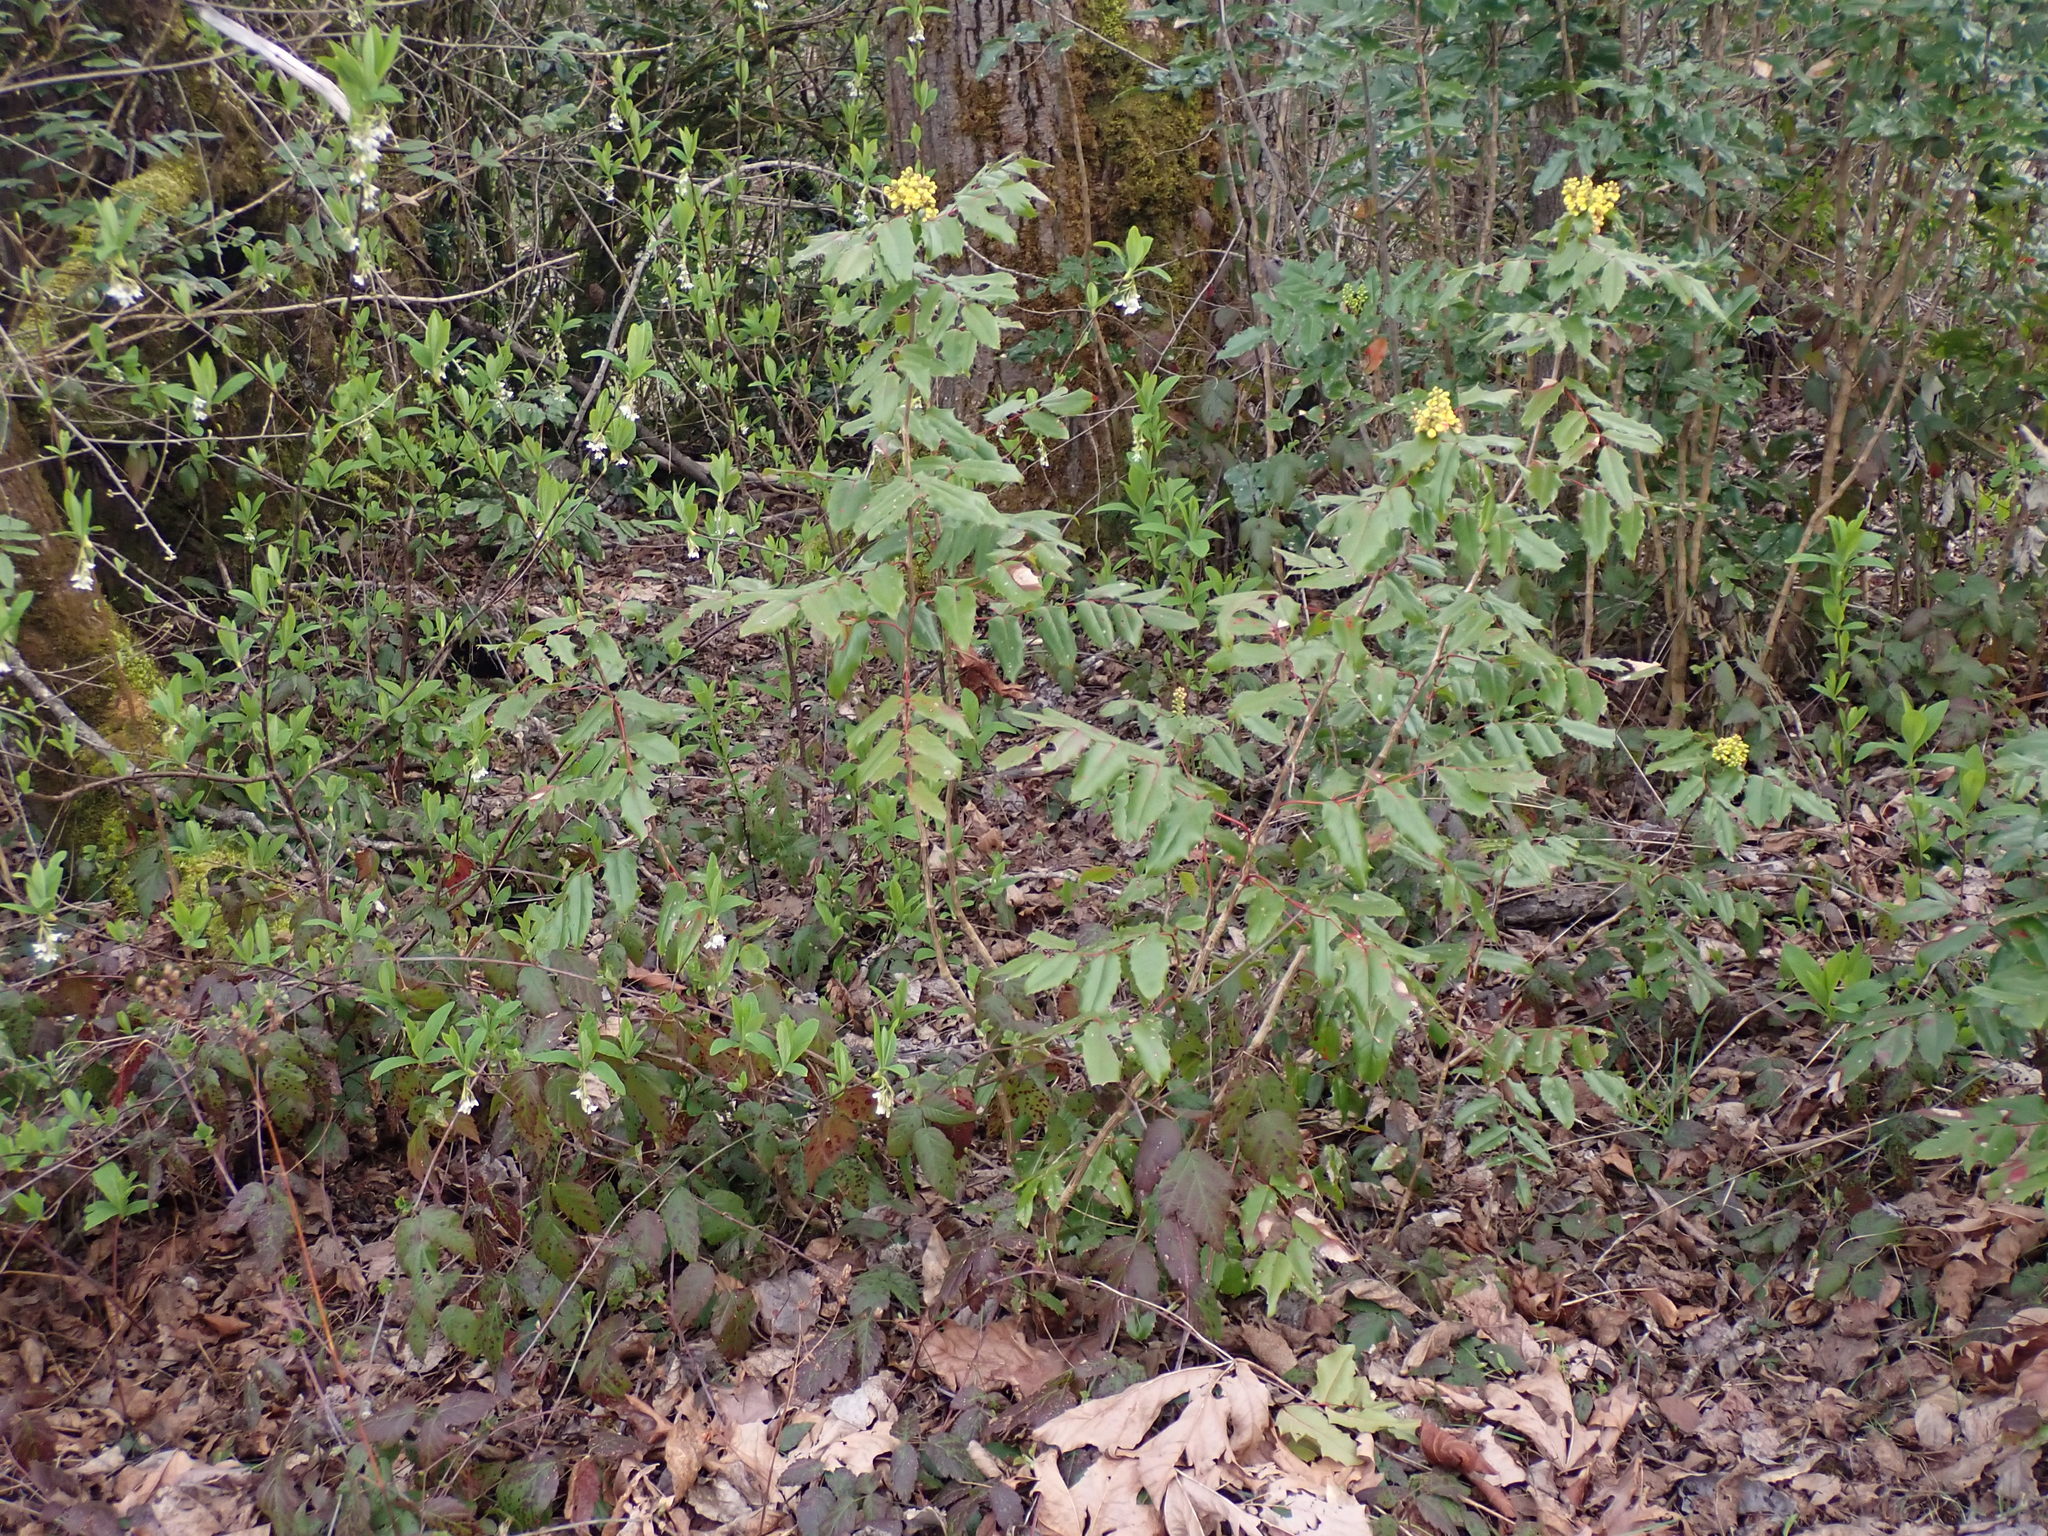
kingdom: Plantae
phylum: Tracheophyta
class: Magnoliopsida
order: Ranunculales
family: Berberidaceae
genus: Mahonia
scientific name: Mahonia aquifolium
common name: Oregon-grape
